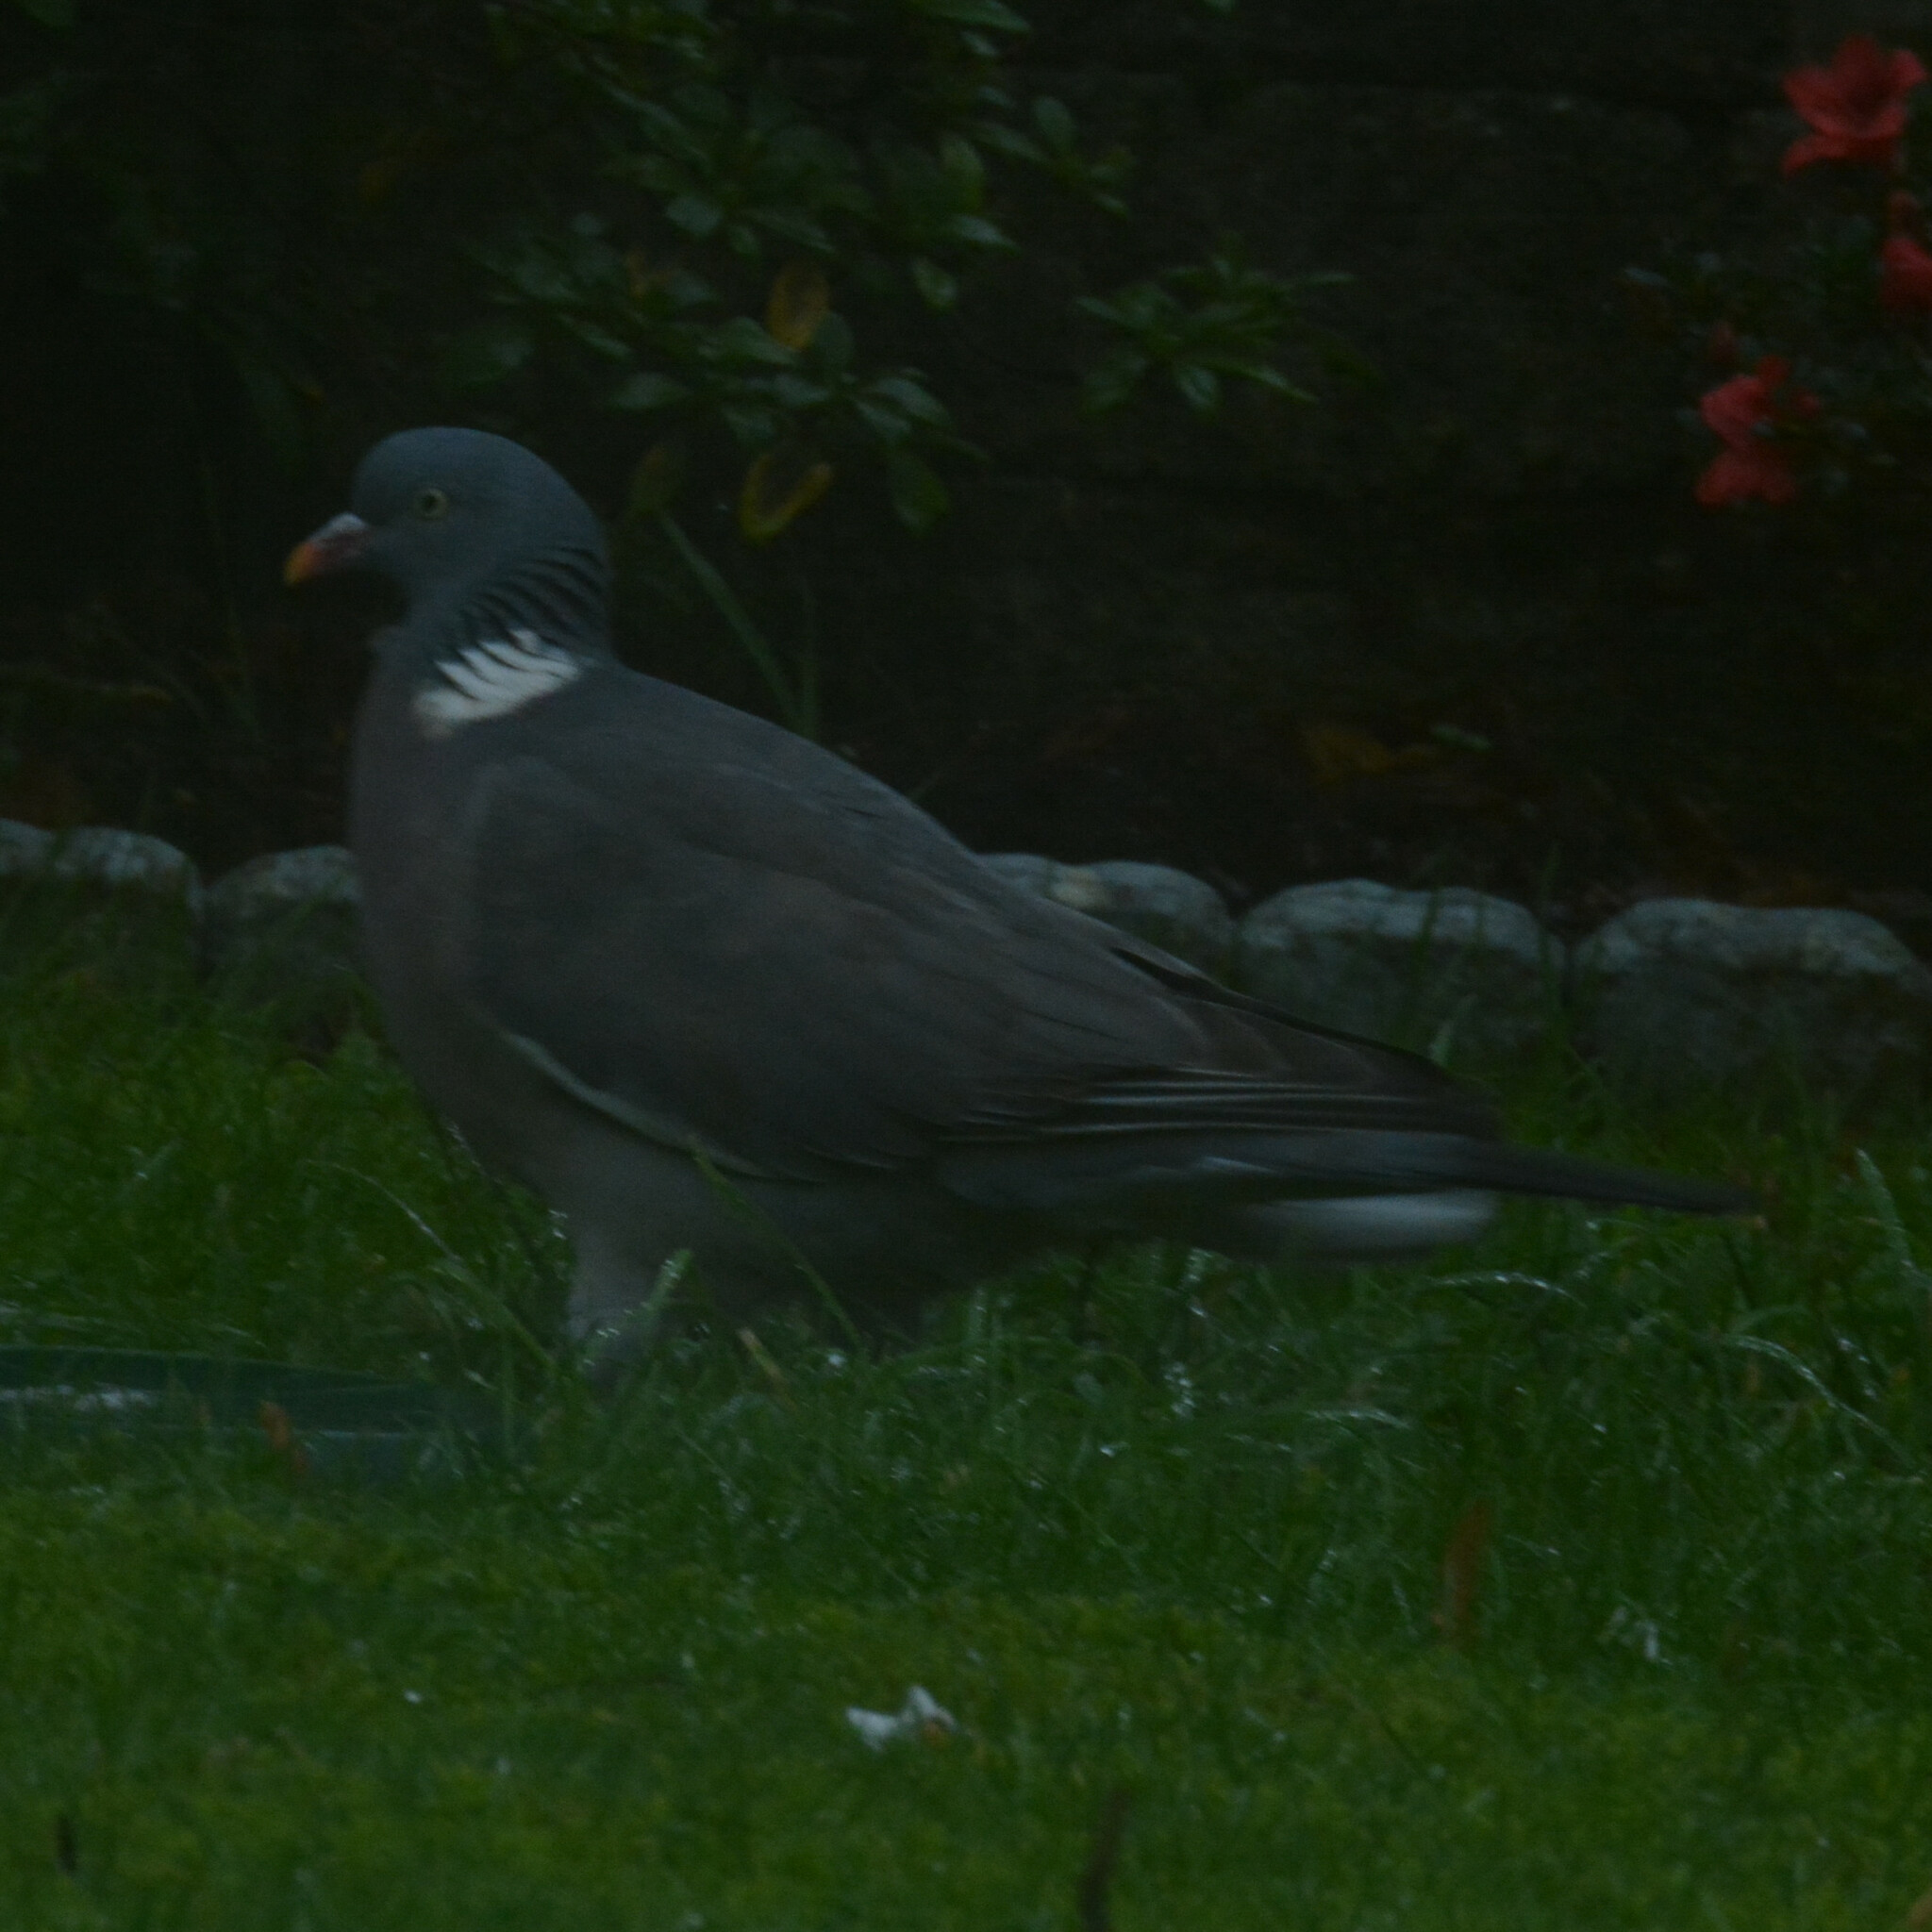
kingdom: Animalia
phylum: Chordata
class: Aves
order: Columbiformes
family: Columbidae
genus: Columba
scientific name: Columba palumbus
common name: Common wood pigeon
